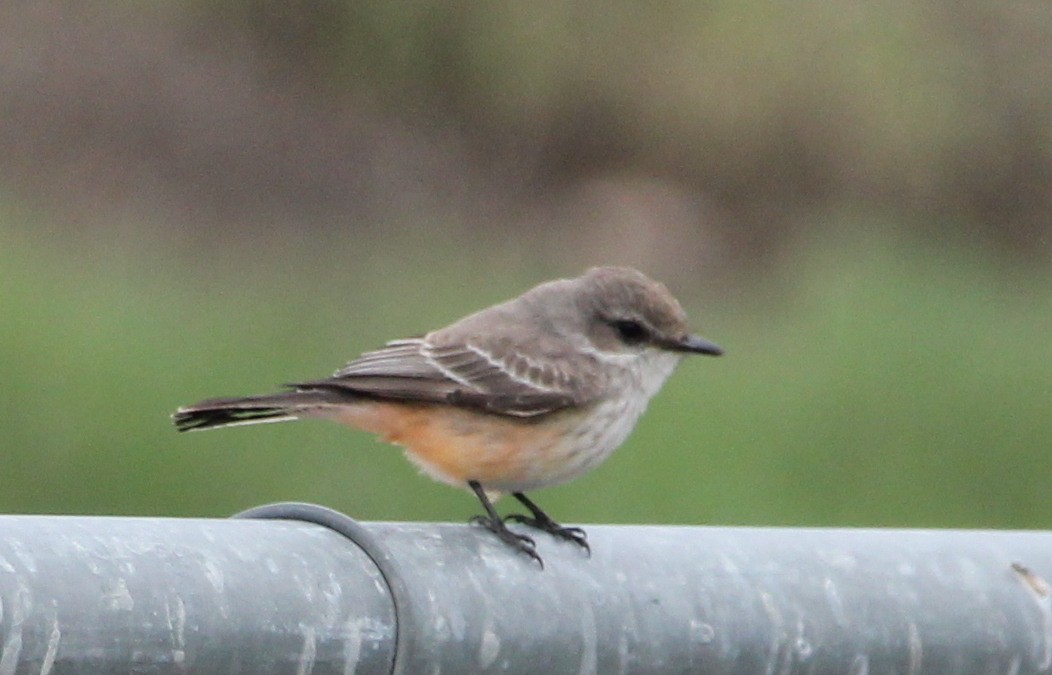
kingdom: Animalia
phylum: Chordata
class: Aves
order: Passeriformes
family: Tyrannidae
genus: Pyrocephalus
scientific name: Pyrocephalus rubinus
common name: Vermilion flycatcher
